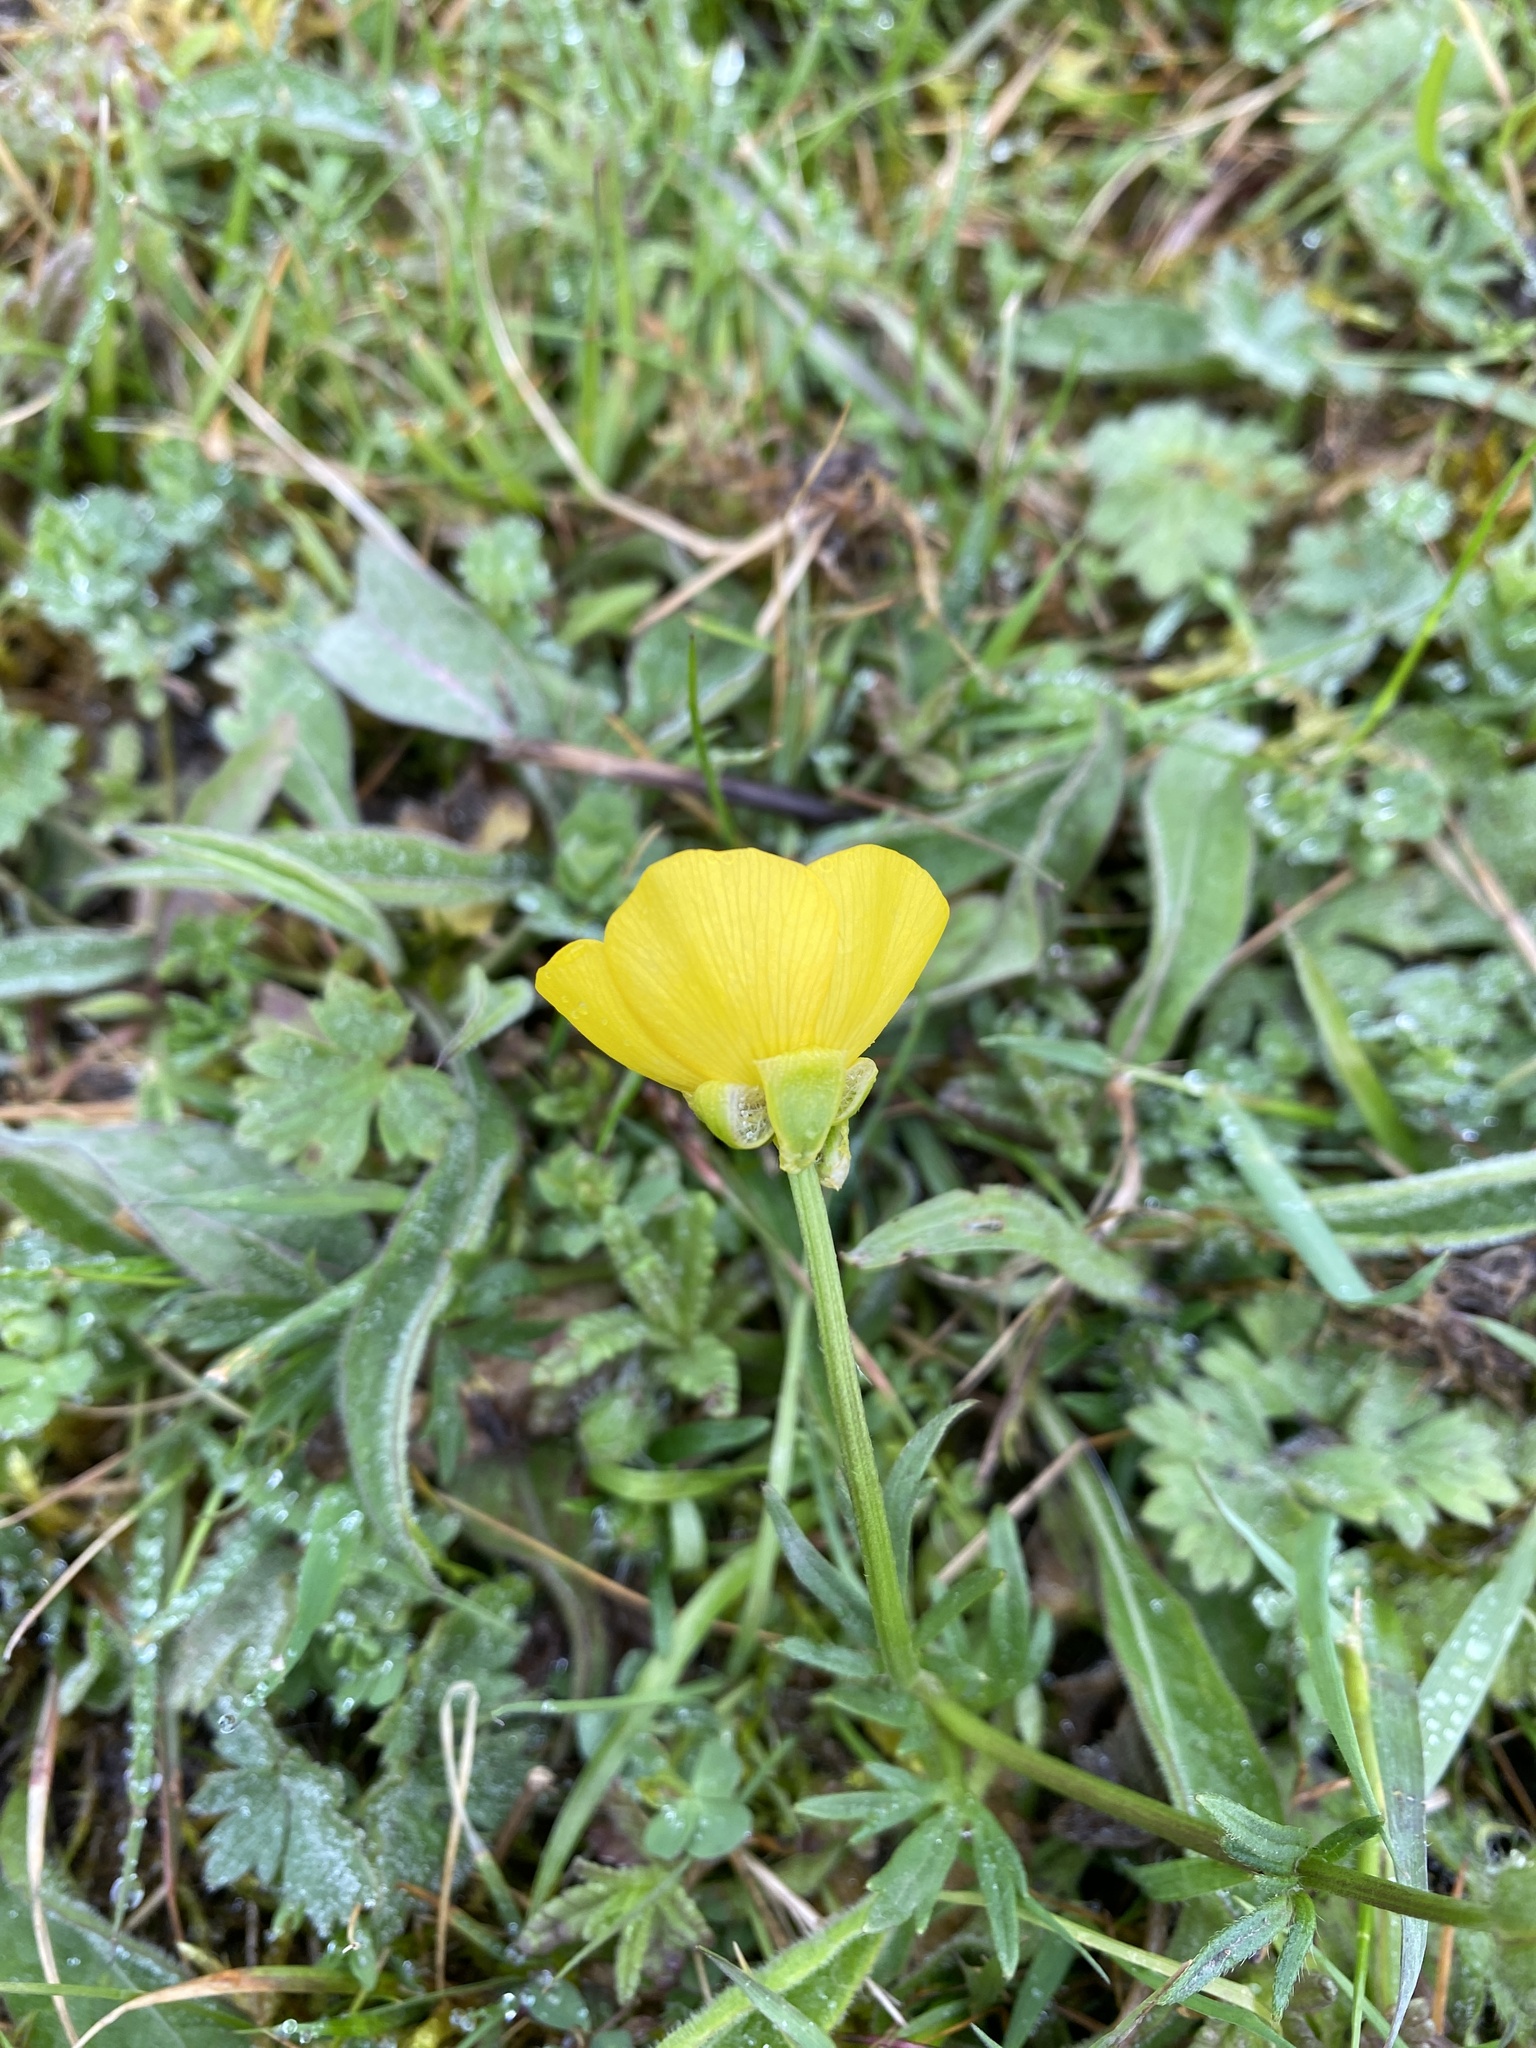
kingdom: Plantae
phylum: Tracheophyta
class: Magnoliopsida
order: Ranunculales
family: Ranunculaceae
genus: Ranunculus
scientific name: Ranunculus bulbosus
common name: Bulbous buttercup
